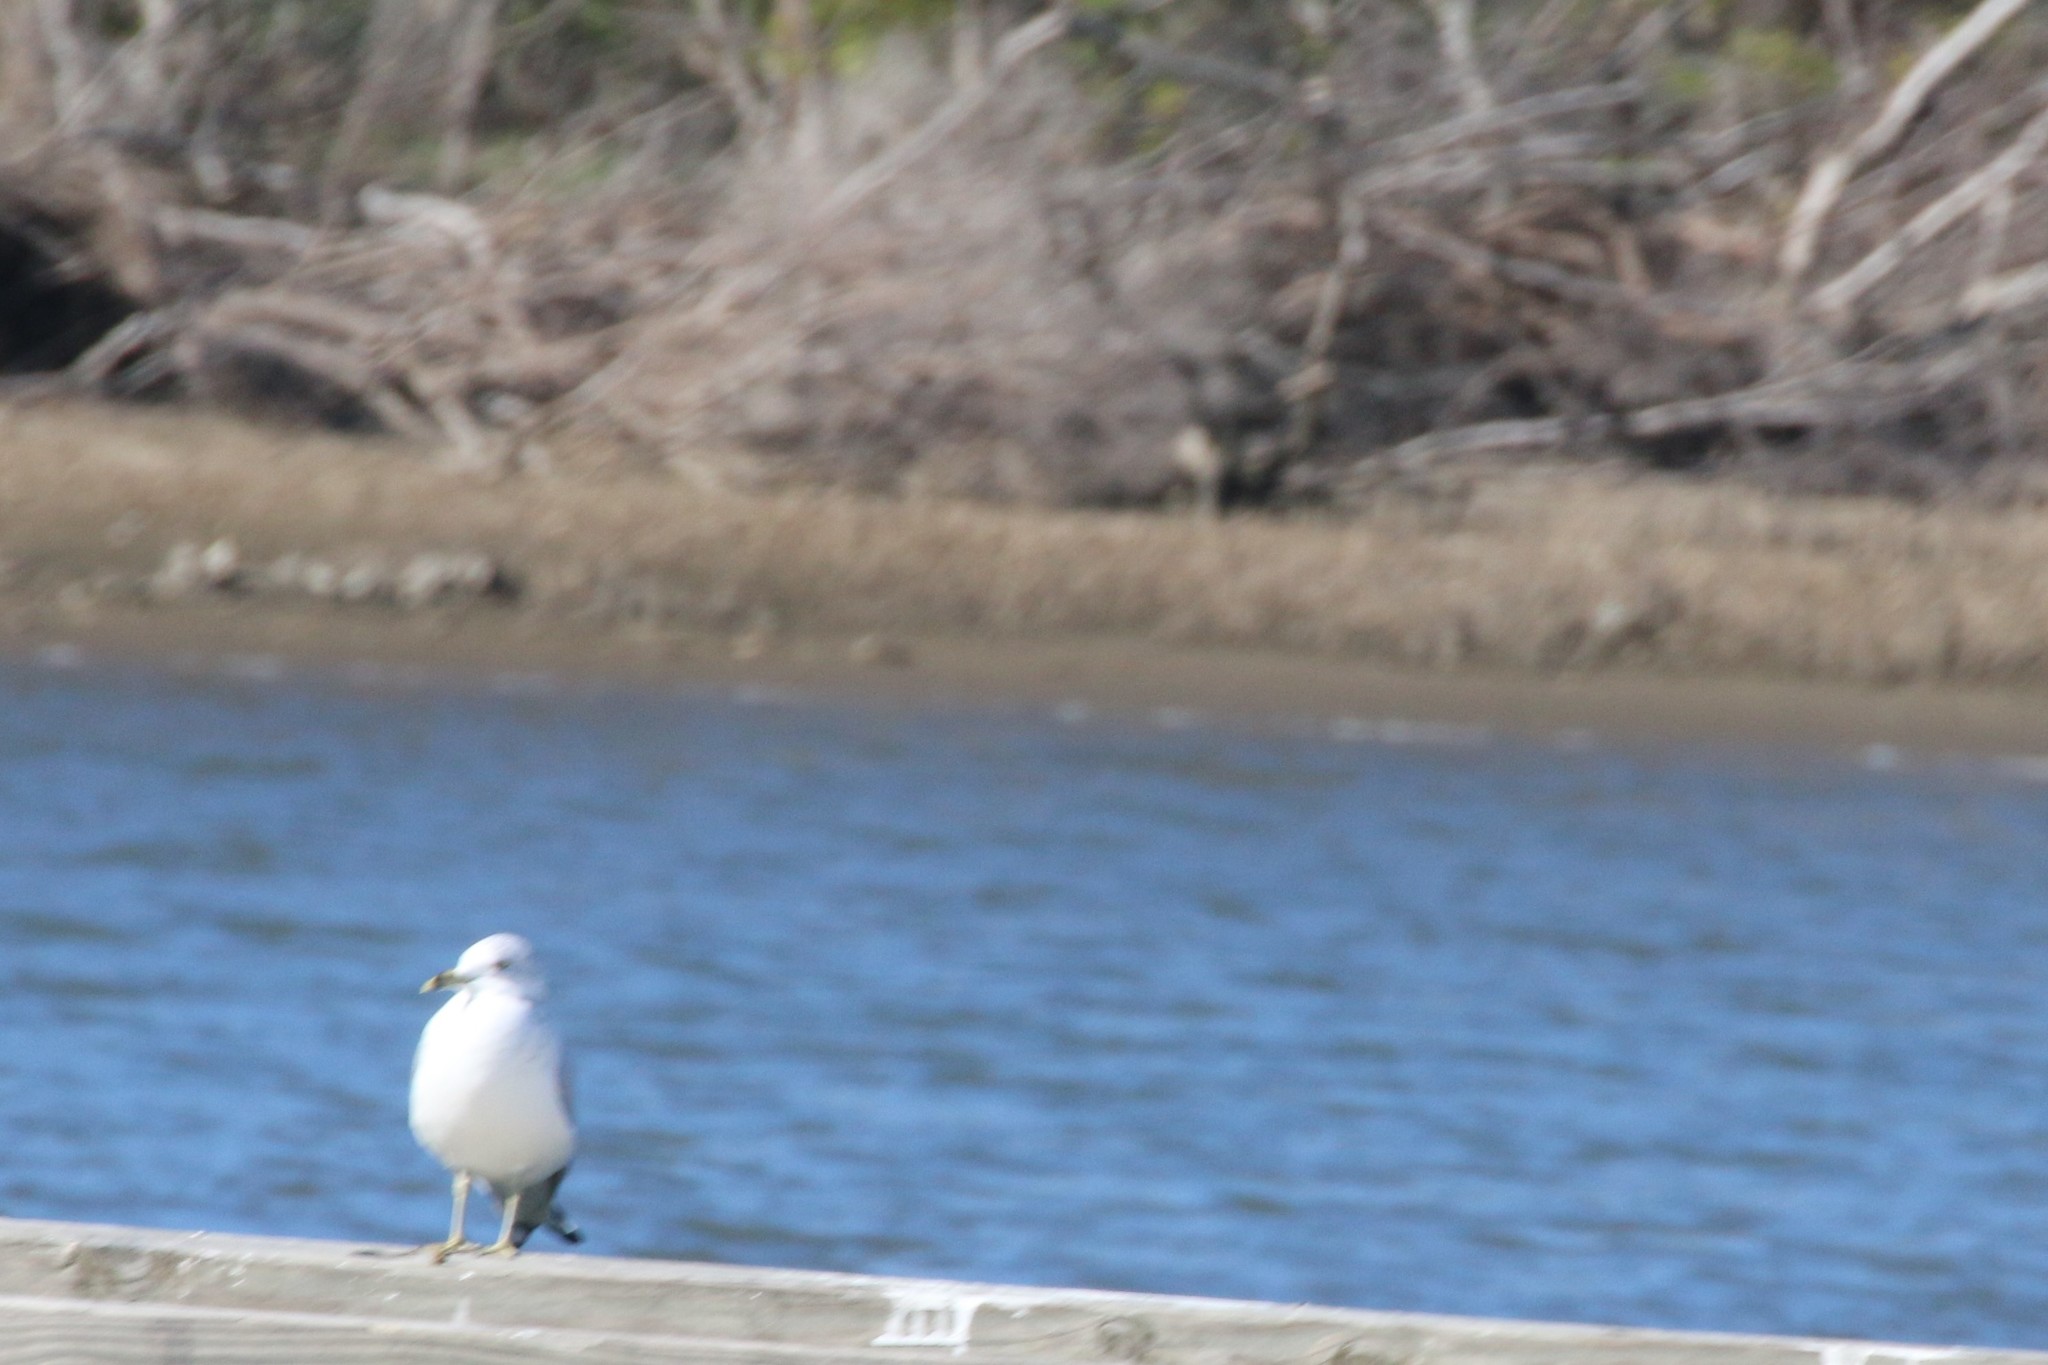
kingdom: Animalia
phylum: Chordata
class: Aves
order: Charadriiformes
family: Laridae
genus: Larus
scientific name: Larus delawarensis
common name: Ring-billed gull
